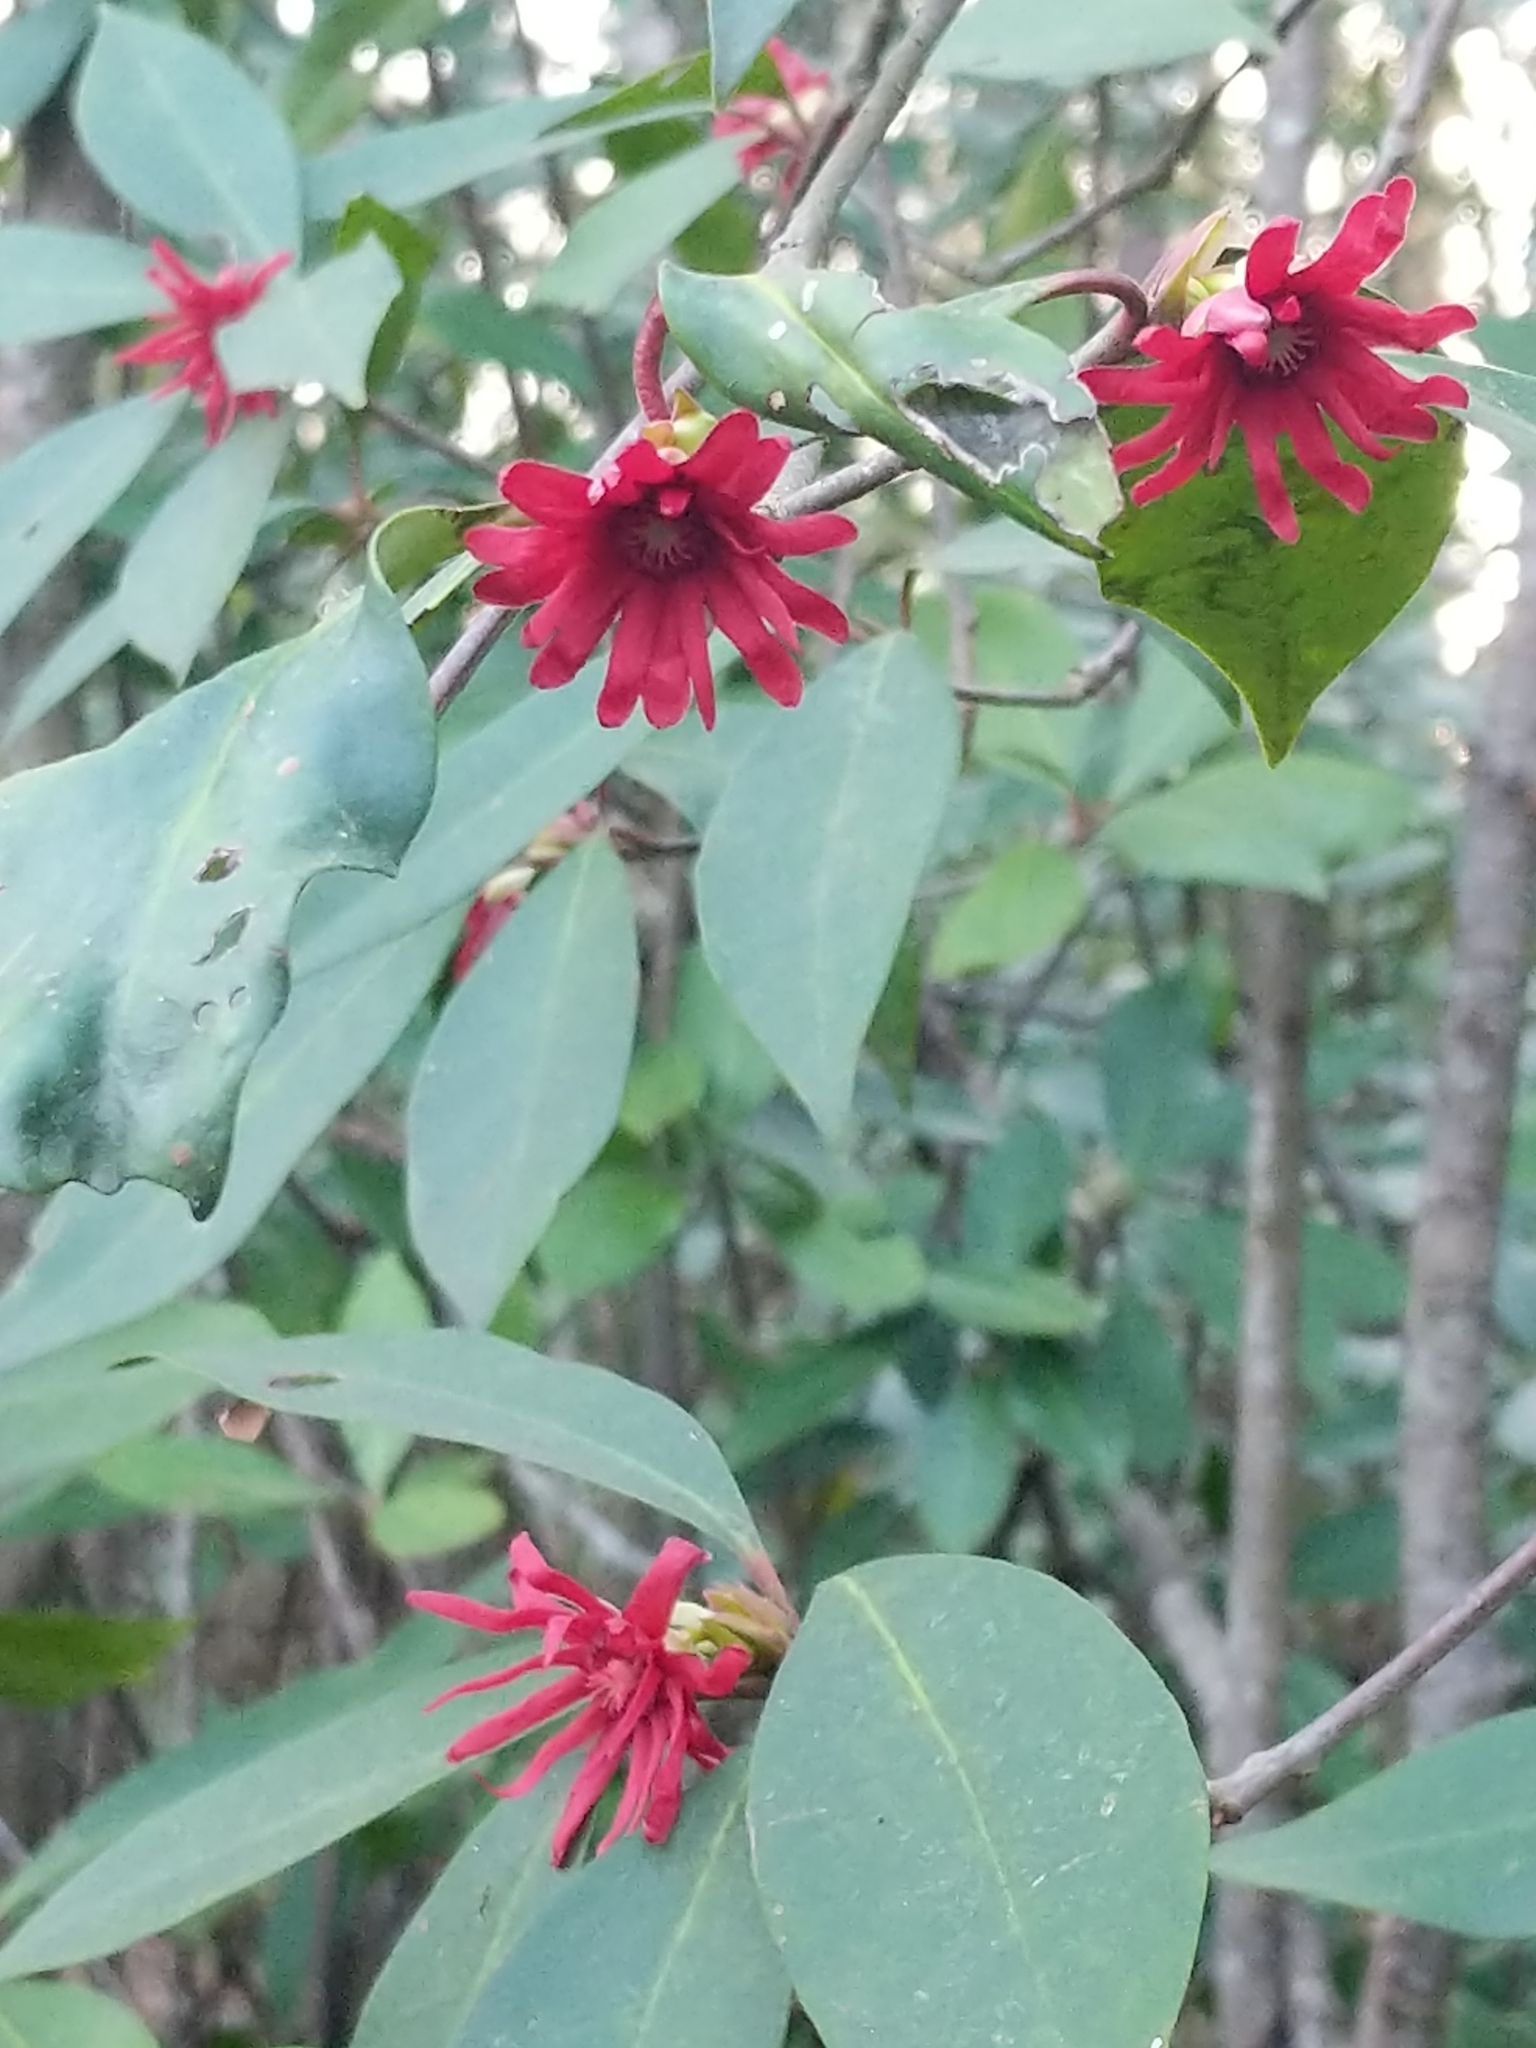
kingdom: Plantae
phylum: Tracheophyta
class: Magnoliopsida
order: Austrobaileyales
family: Schisandraceae
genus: Illicium
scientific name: Illicium floridanum
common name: Florida anisetree
